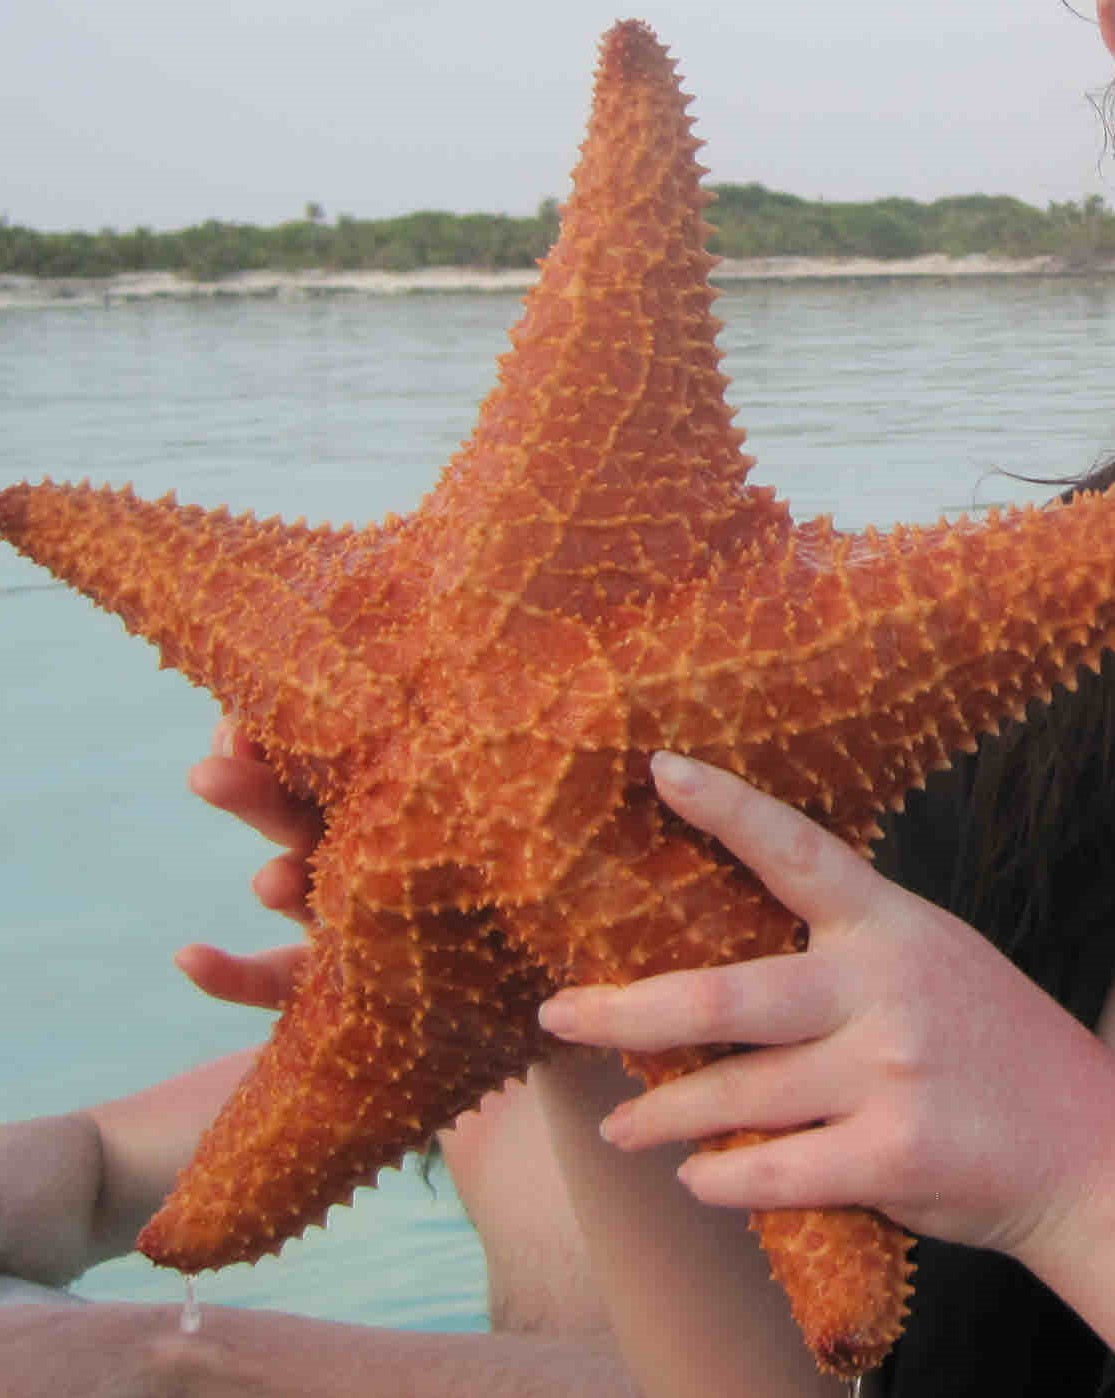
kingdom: Animalia
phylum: Echinodermata
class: Asteroidea
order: Valvatida
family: Oreasteridae
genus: Oreaster
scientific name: Oreaster reticulatus
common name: Cushion sea star
